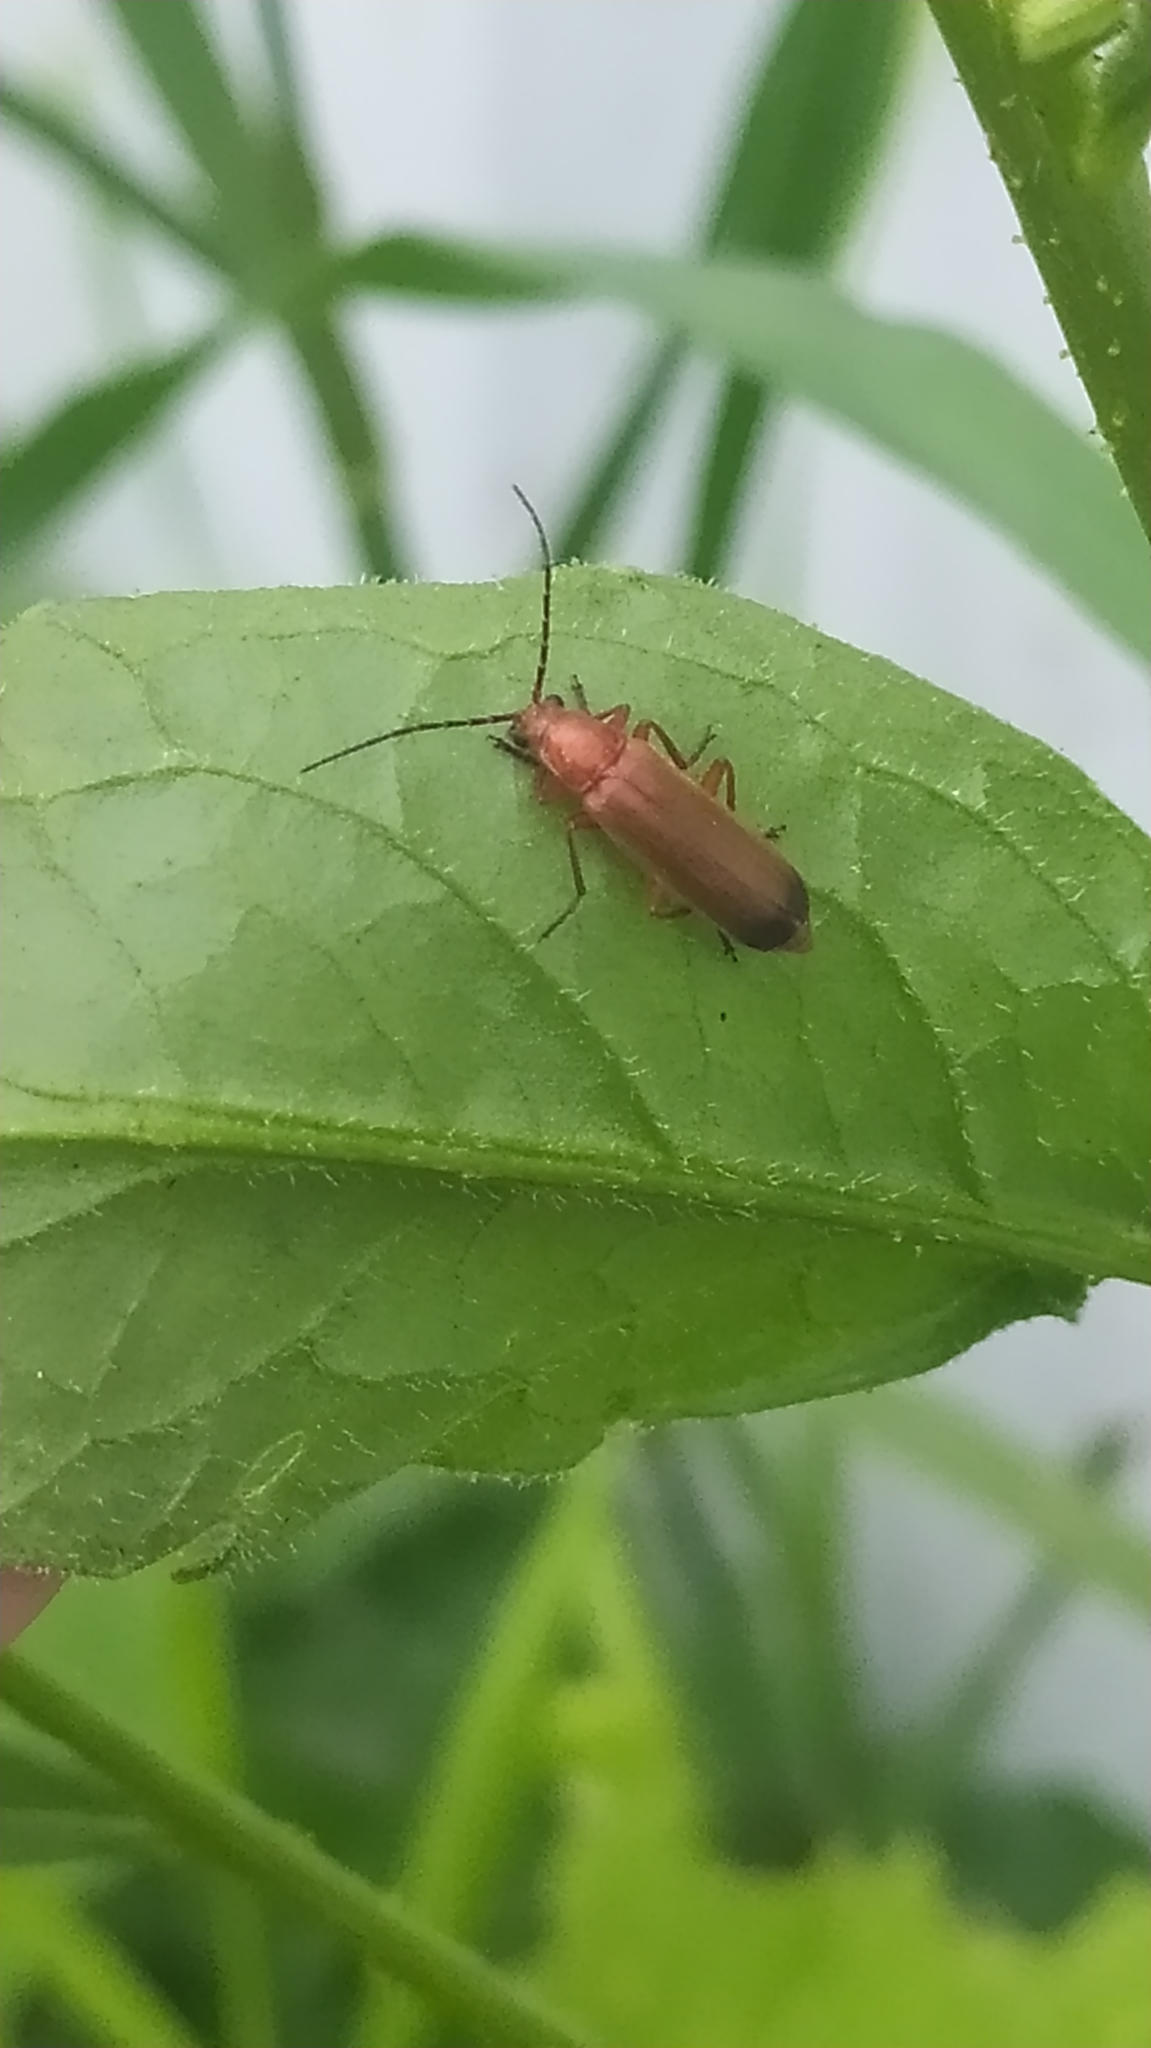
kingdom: Animalia
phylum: Arthropoda
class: Insecta
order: Coleoptera
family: Cantharidae
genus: Rhagonycha
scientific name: Rhagonycha fulva
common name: Common red soldier beetle
